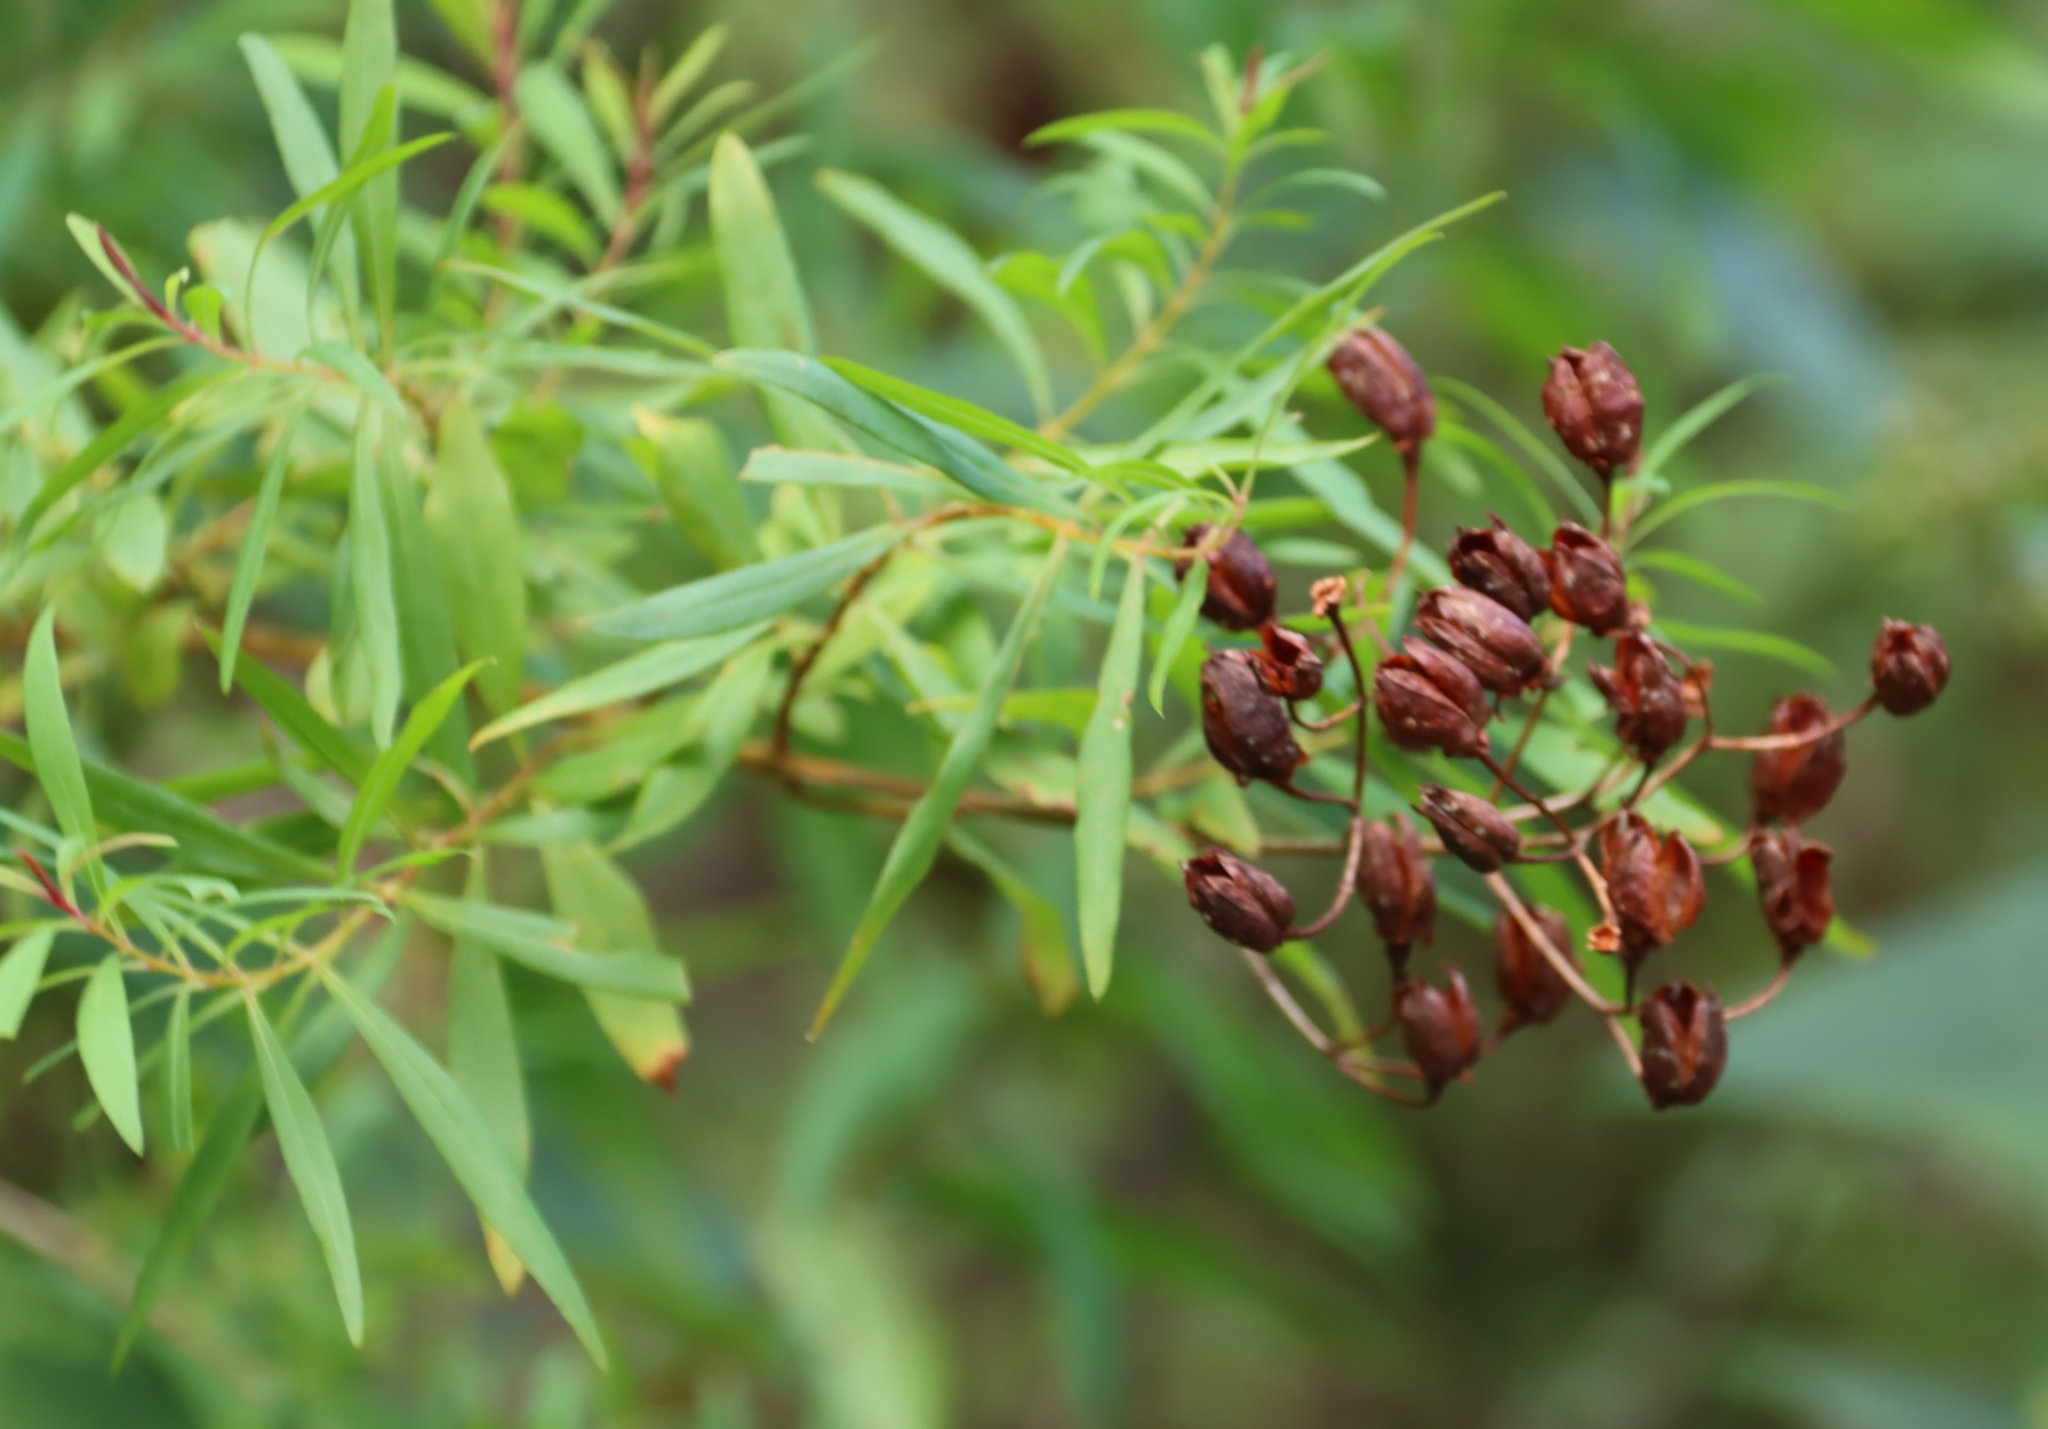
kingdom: Plantae
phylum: Tracheophyta
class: Magnoliopsida
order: Malpighiales
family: Hypericaceae
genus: Hypericum
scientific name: Hypericum canariense
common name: Canary island st. johnswort
